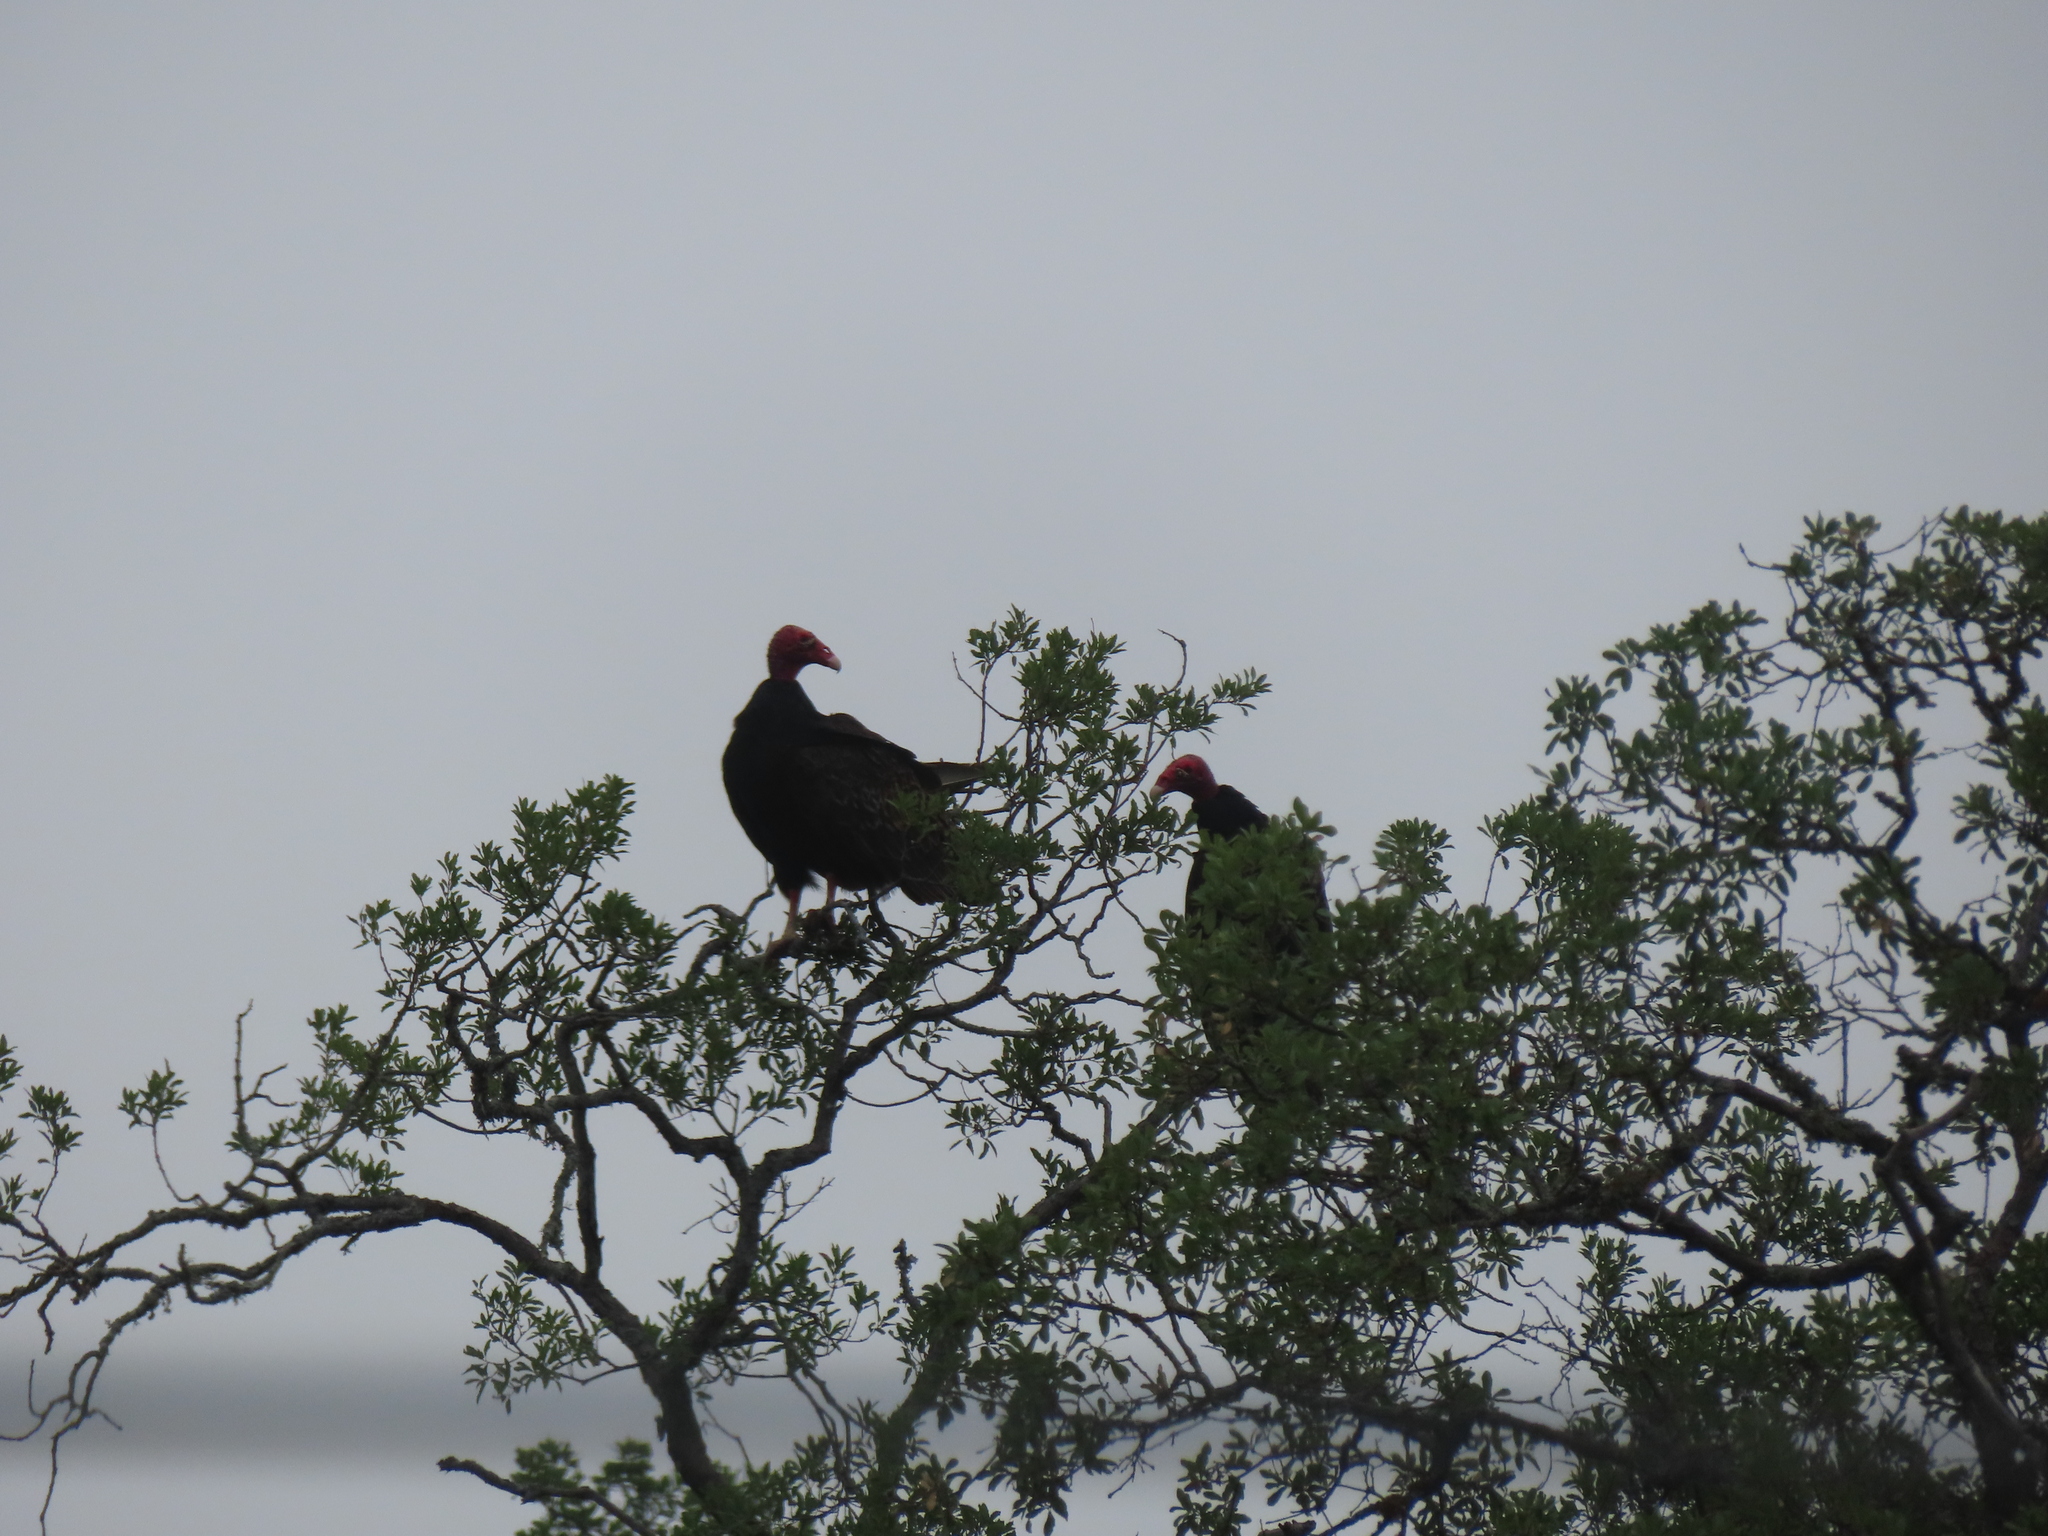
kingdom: Animalia
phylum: Chordata
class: Aves
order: Accipitriformes
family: Cathartidae
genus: Cathartes
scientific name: Cathartes aura
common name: Turkey vulture
